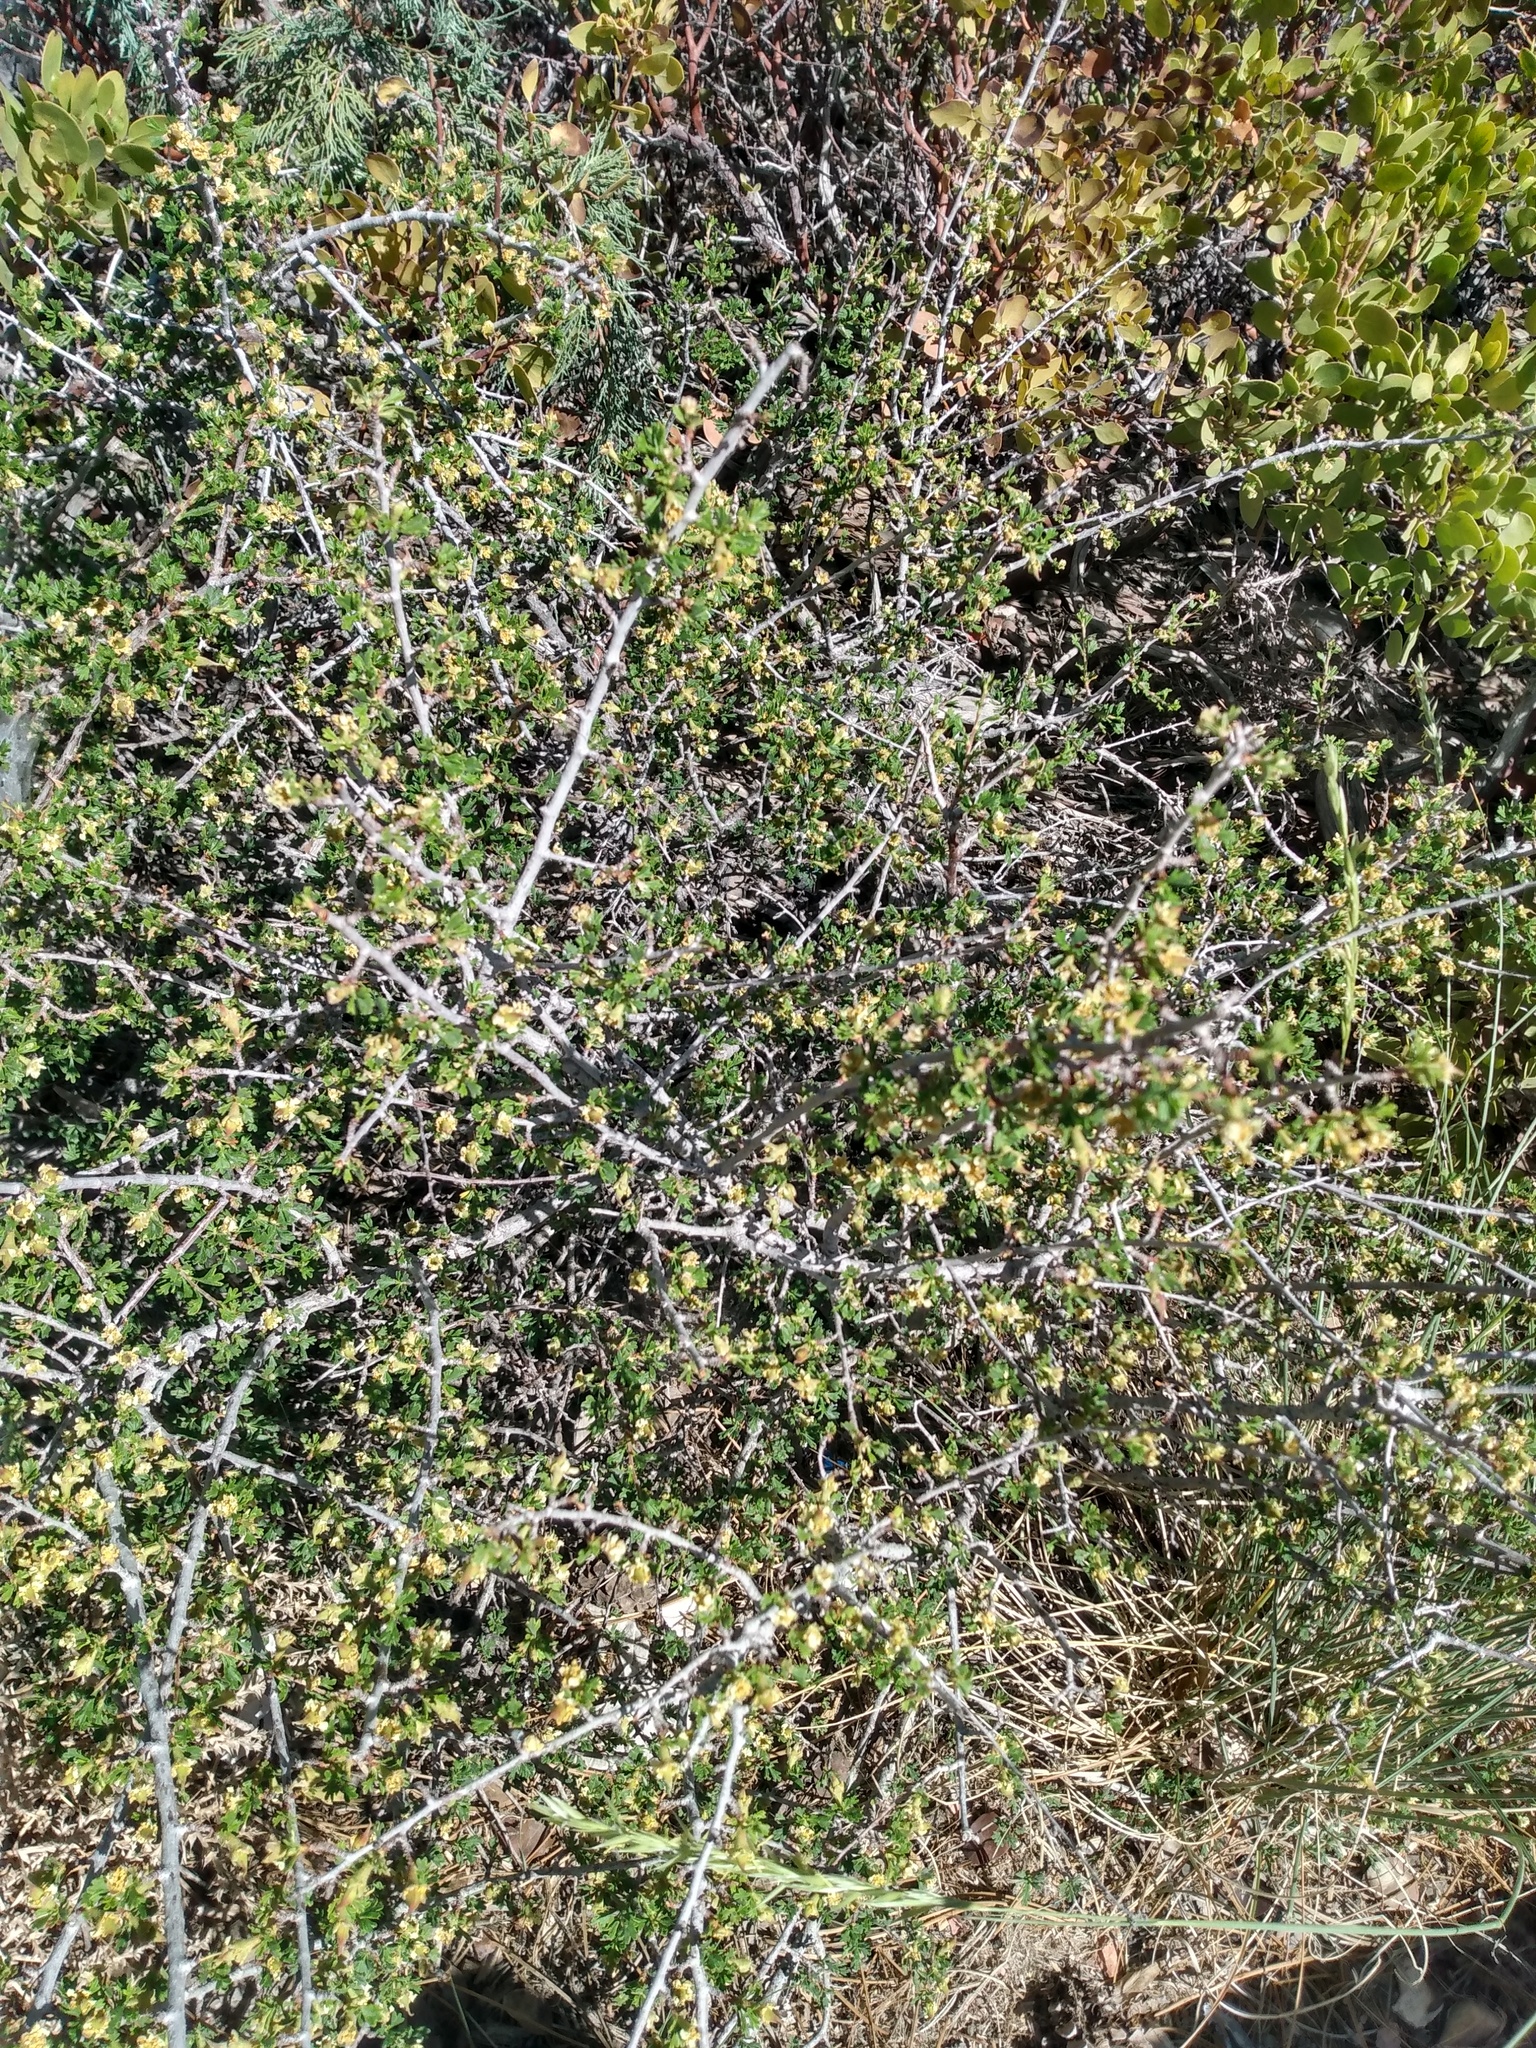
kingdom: Plantae
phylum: Tracheophyta
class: Magnoliopsida
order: Rosales
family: Rosaceae
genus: Purshia
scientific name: Purshia tridentata
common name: Antelope bitterbrush
